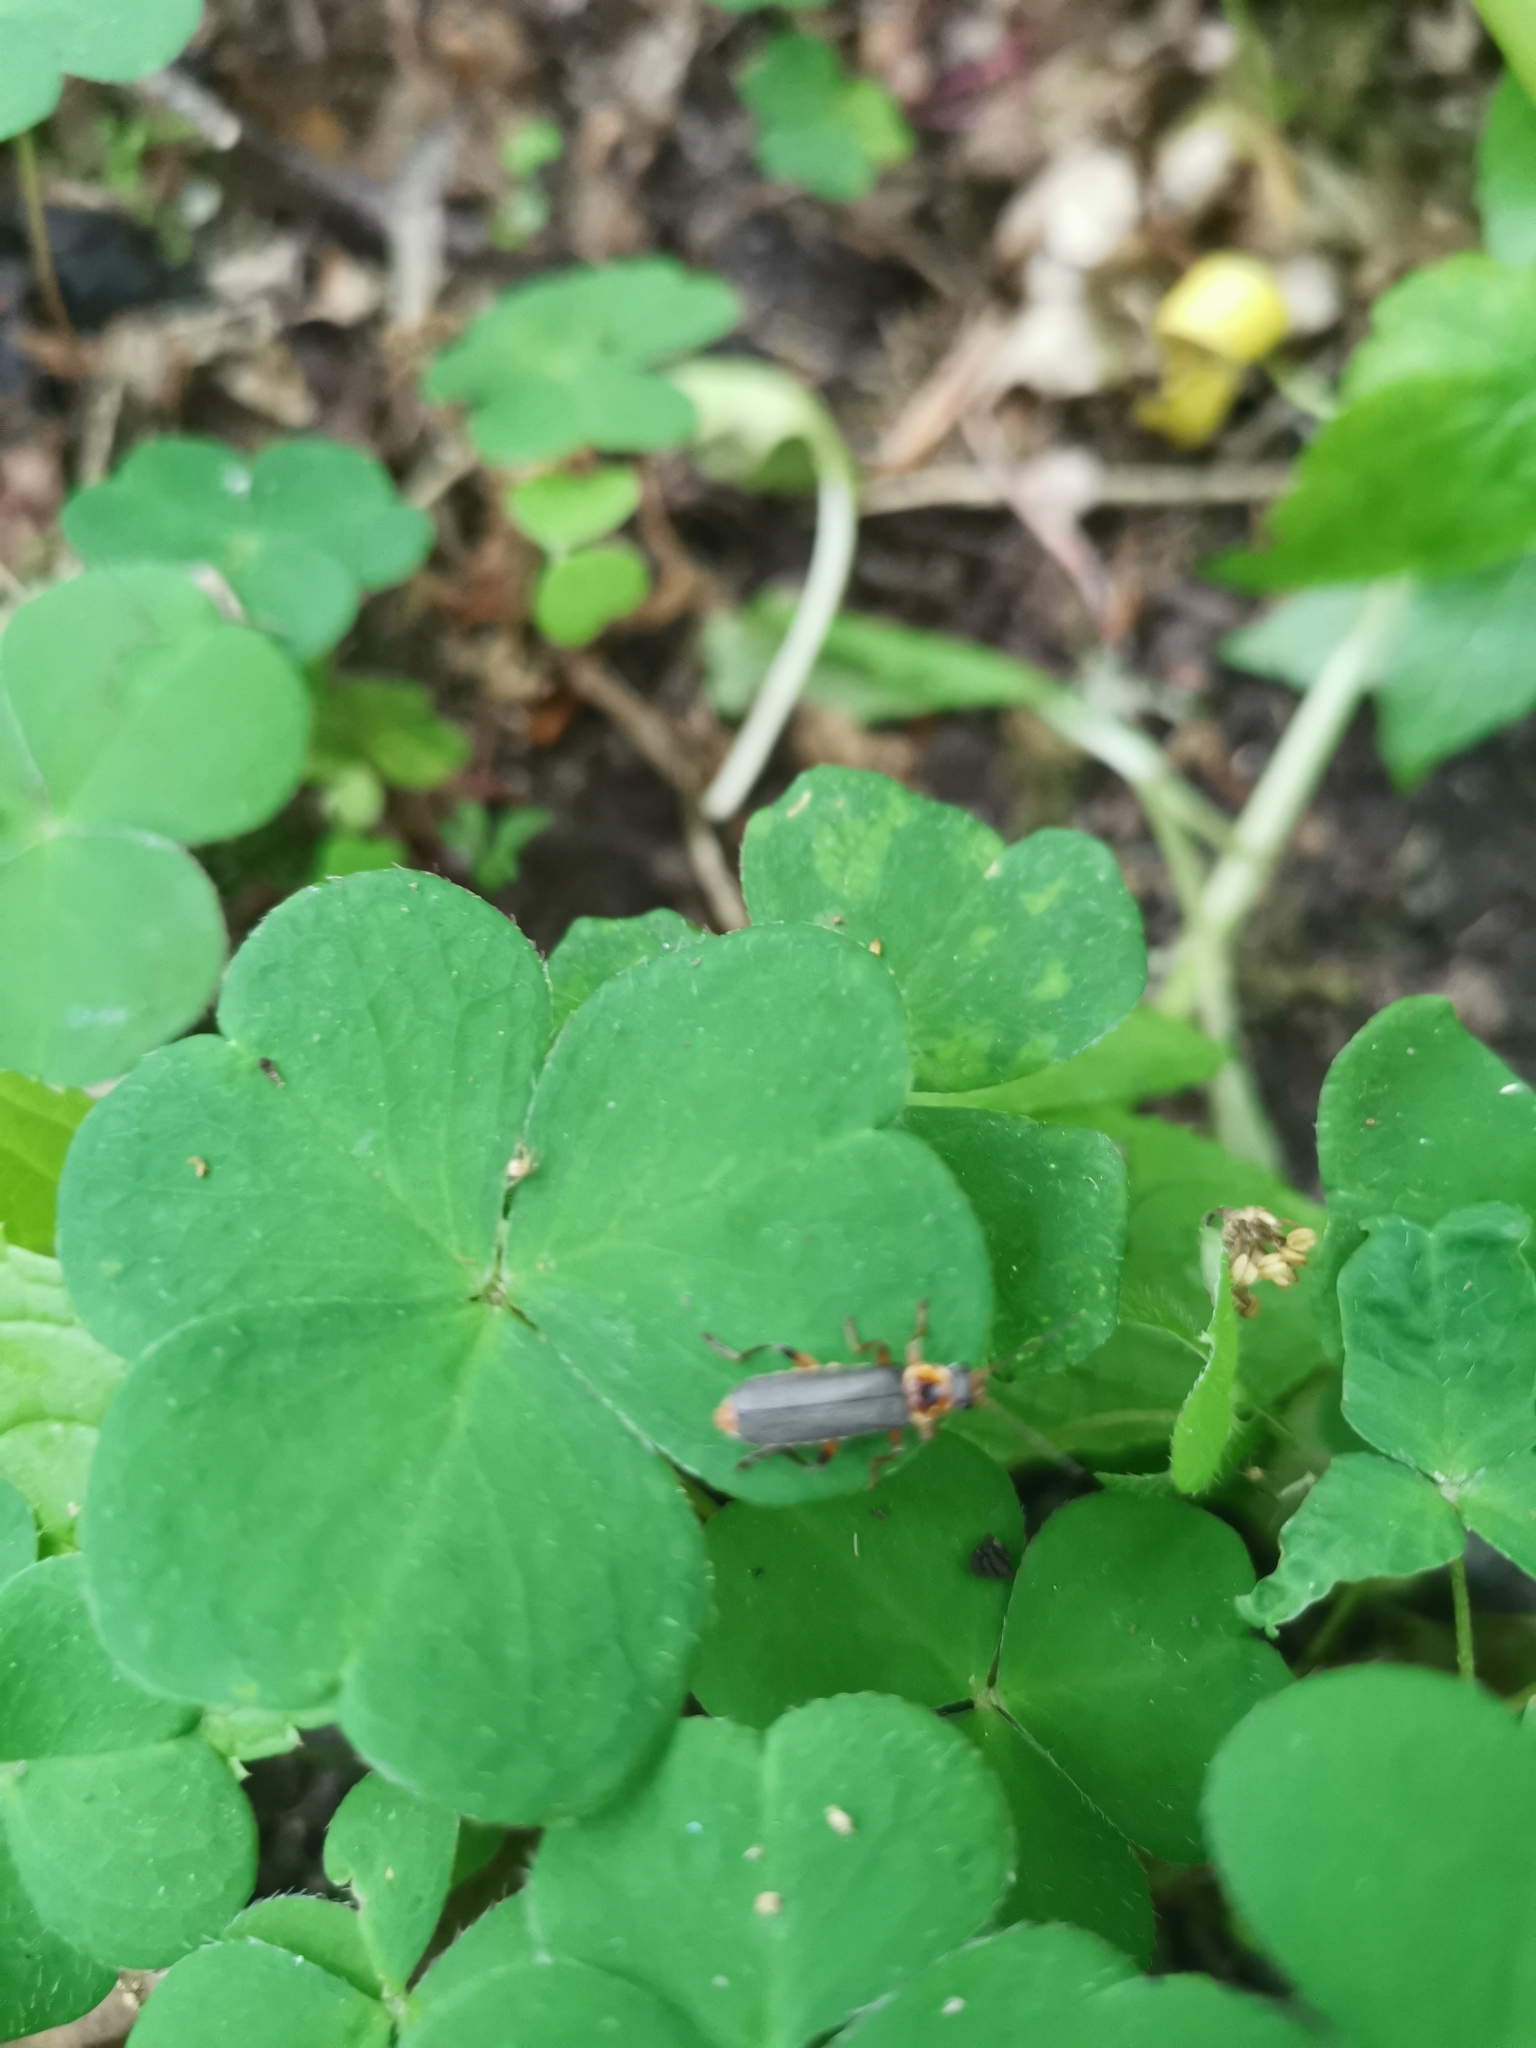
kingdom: Animalia
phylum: Arthropoda
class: Insecta
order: Coleoptera
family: Cantharidae
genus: Cantharis
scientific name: Cantharis nigricans
